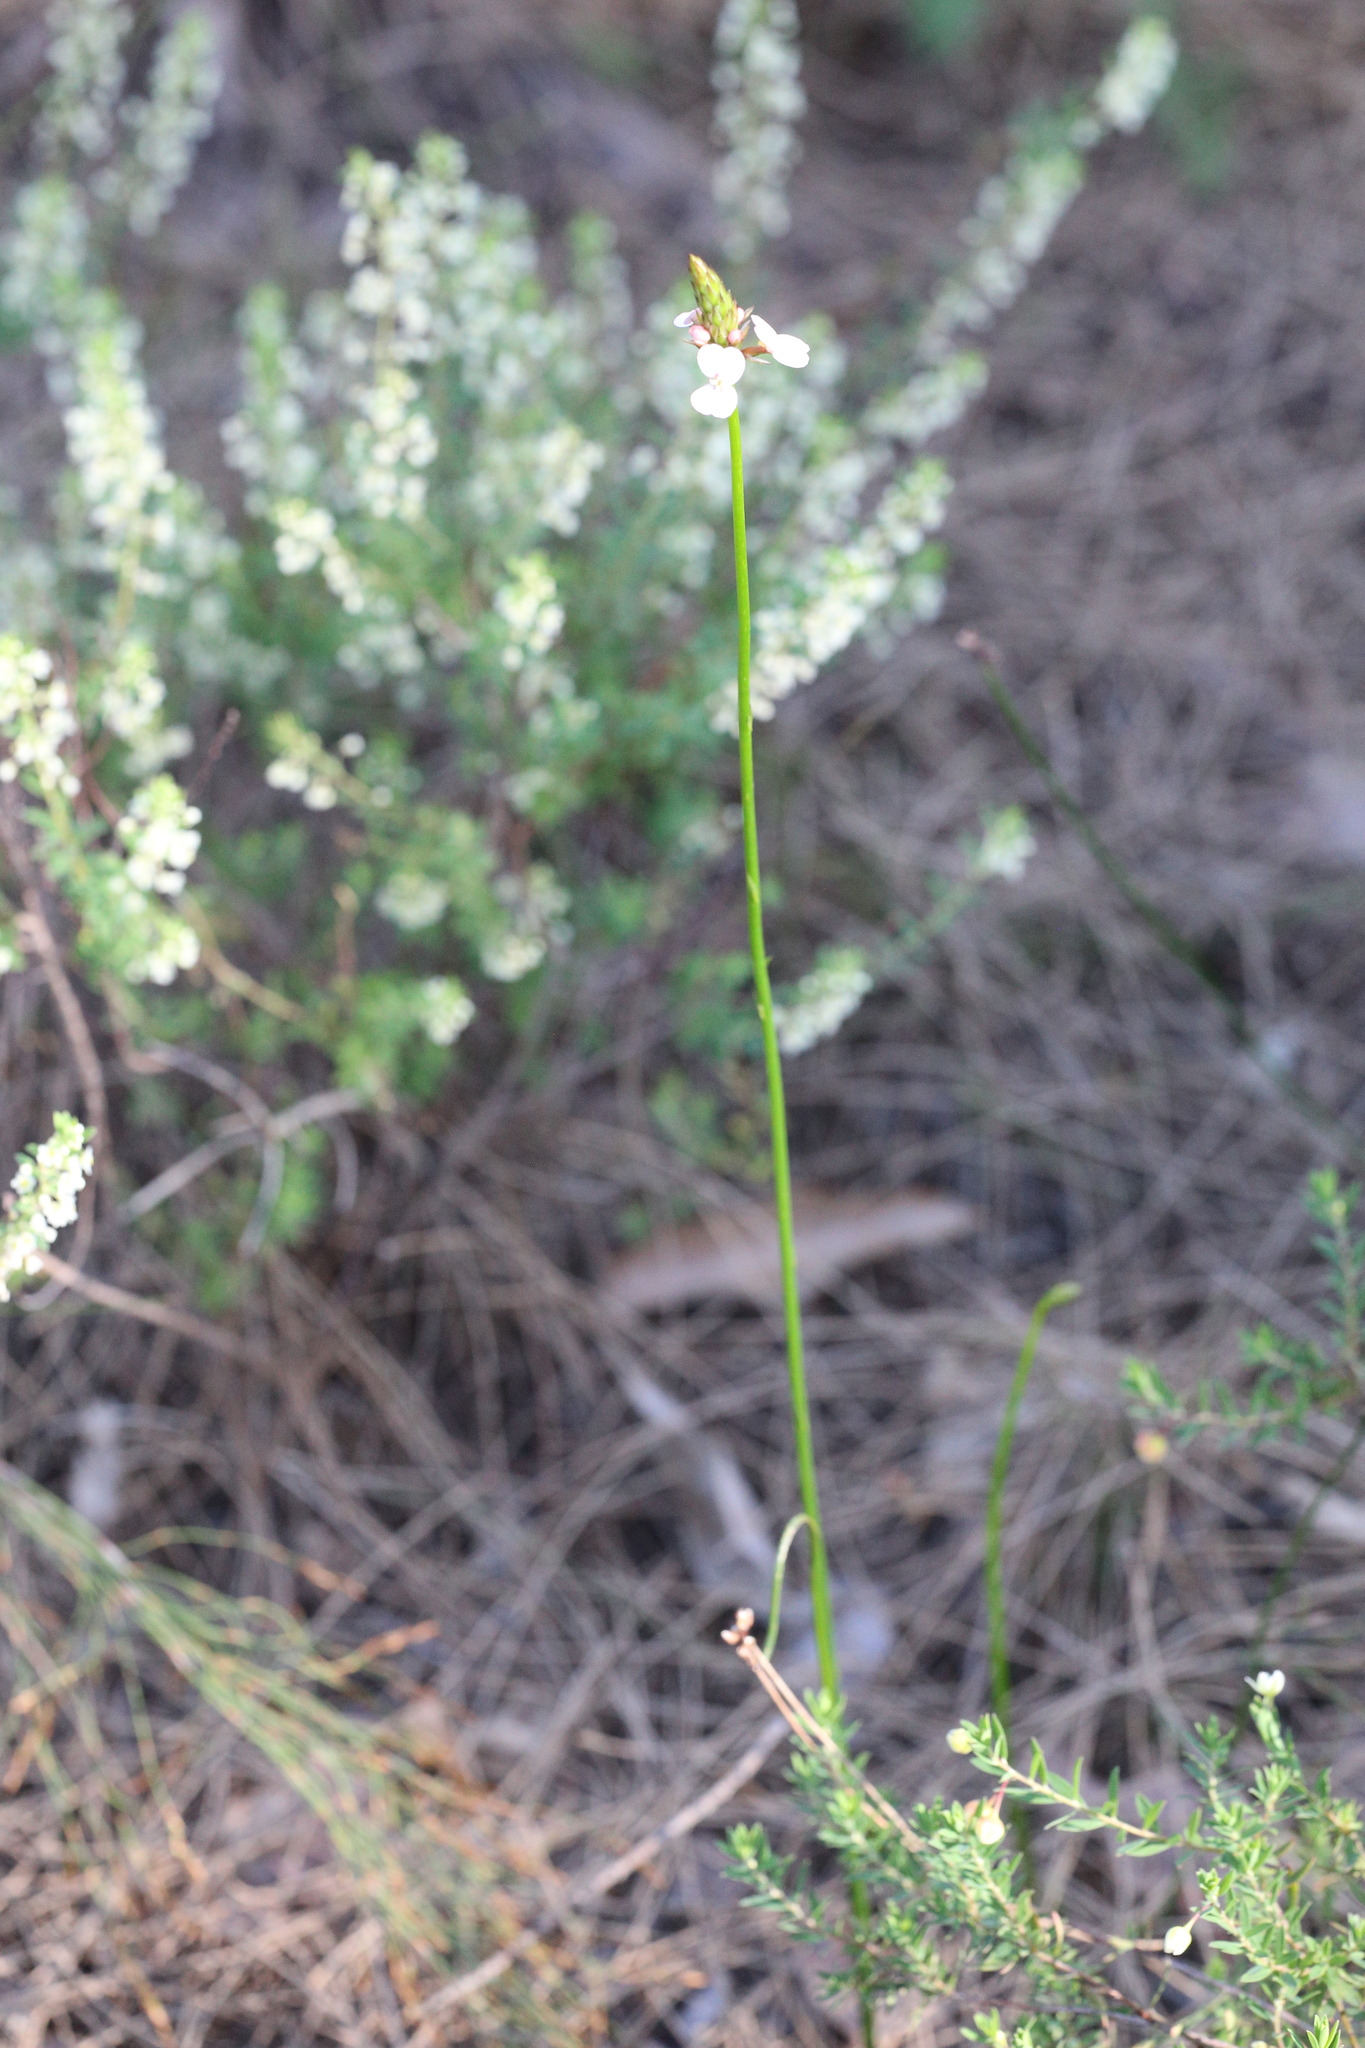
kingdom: Plantae
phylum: Tracheophyta
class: Magnoliopsida
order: Asterales
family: Stylidiaceae
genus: Stylidium
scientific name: Stylidium scariosum
